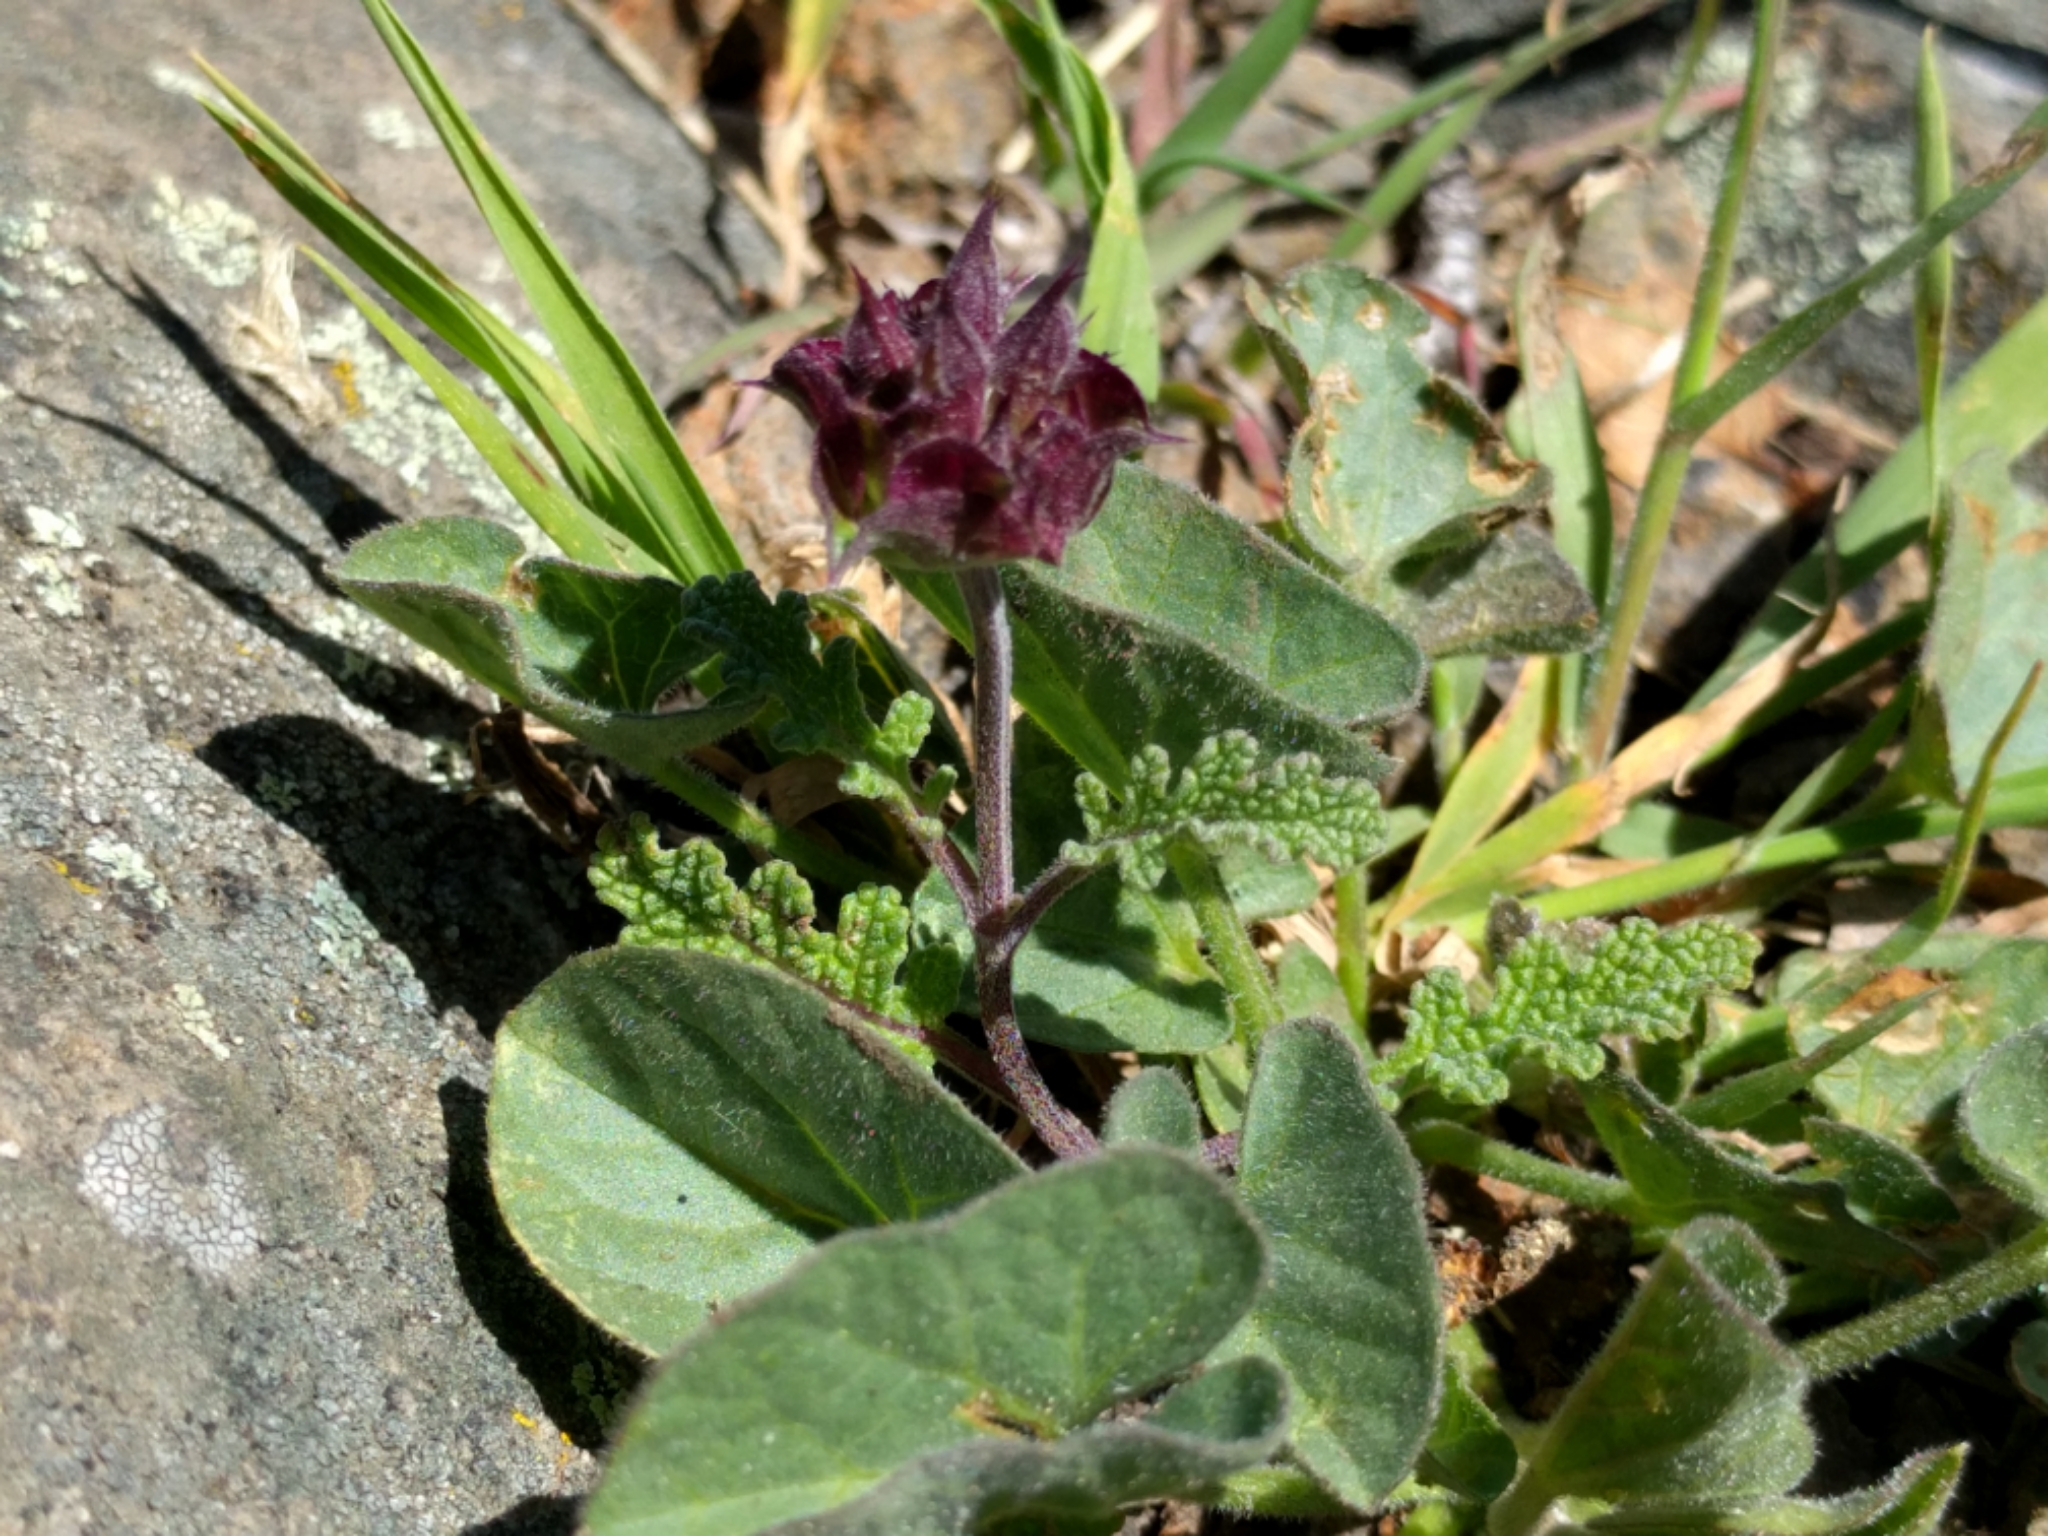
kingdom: Plantae
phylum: Tracheophyta
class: Magnoliopsida
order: Lamiales
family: Lamiaceae
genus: Salvia
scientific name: Salvia columbariae
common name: Chia
